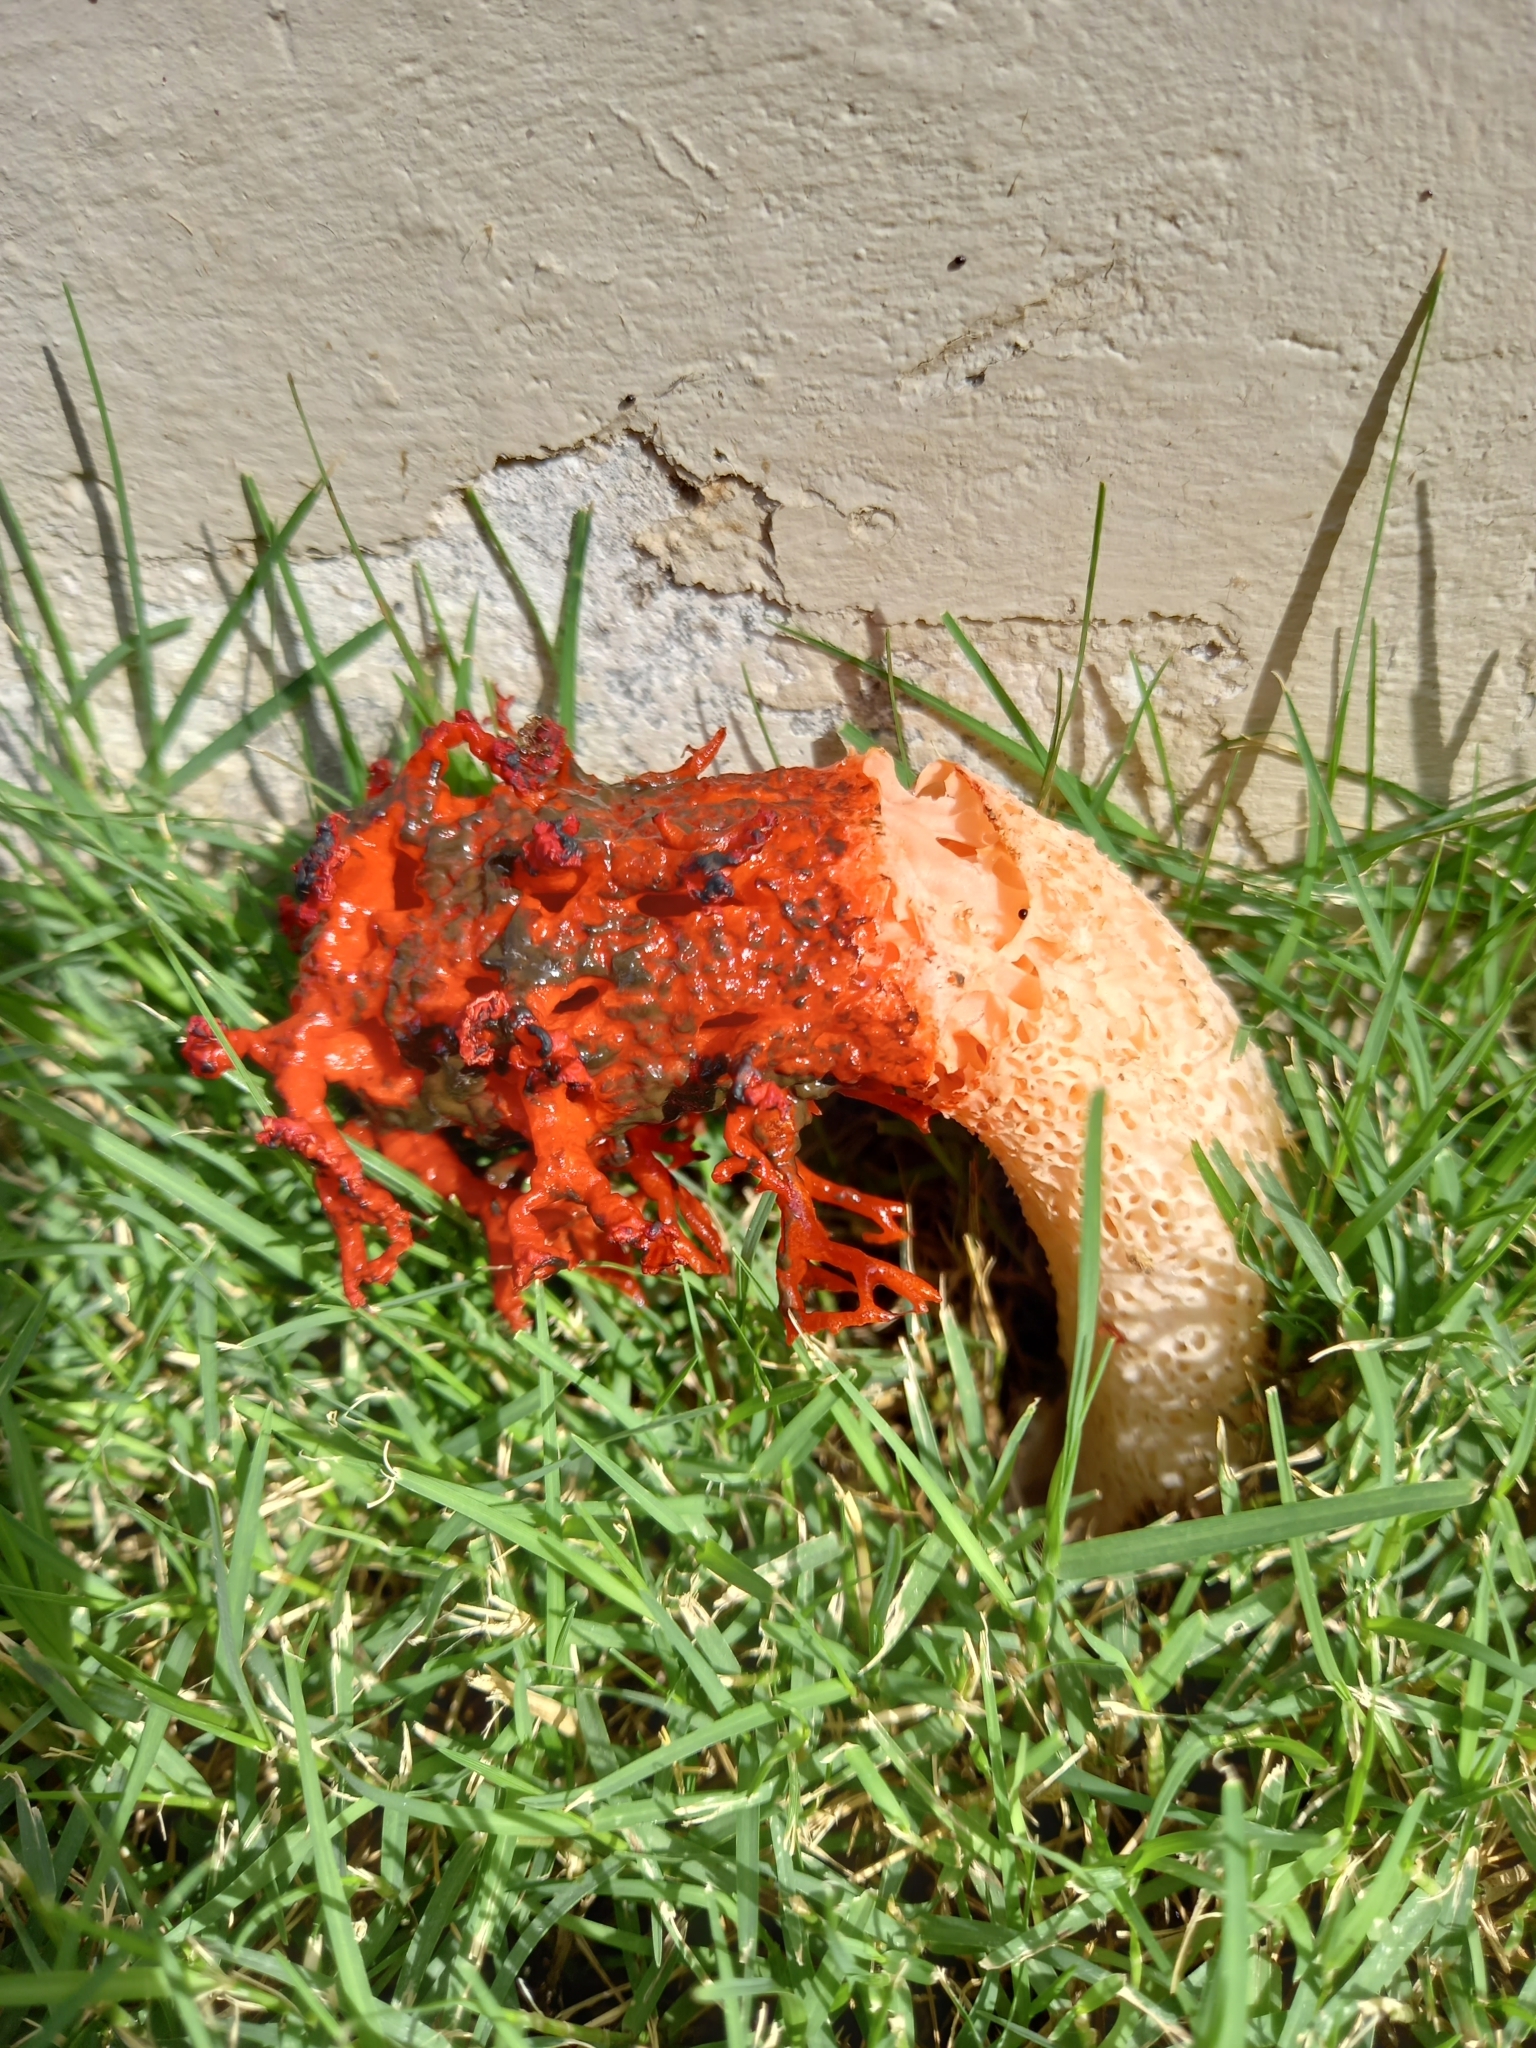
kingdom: Fungi
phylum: Basidiomycota
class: Agaricomycetes
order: Phallales
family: Phallaceae
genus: Lysurus
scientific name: Lysurus corallocephalus
